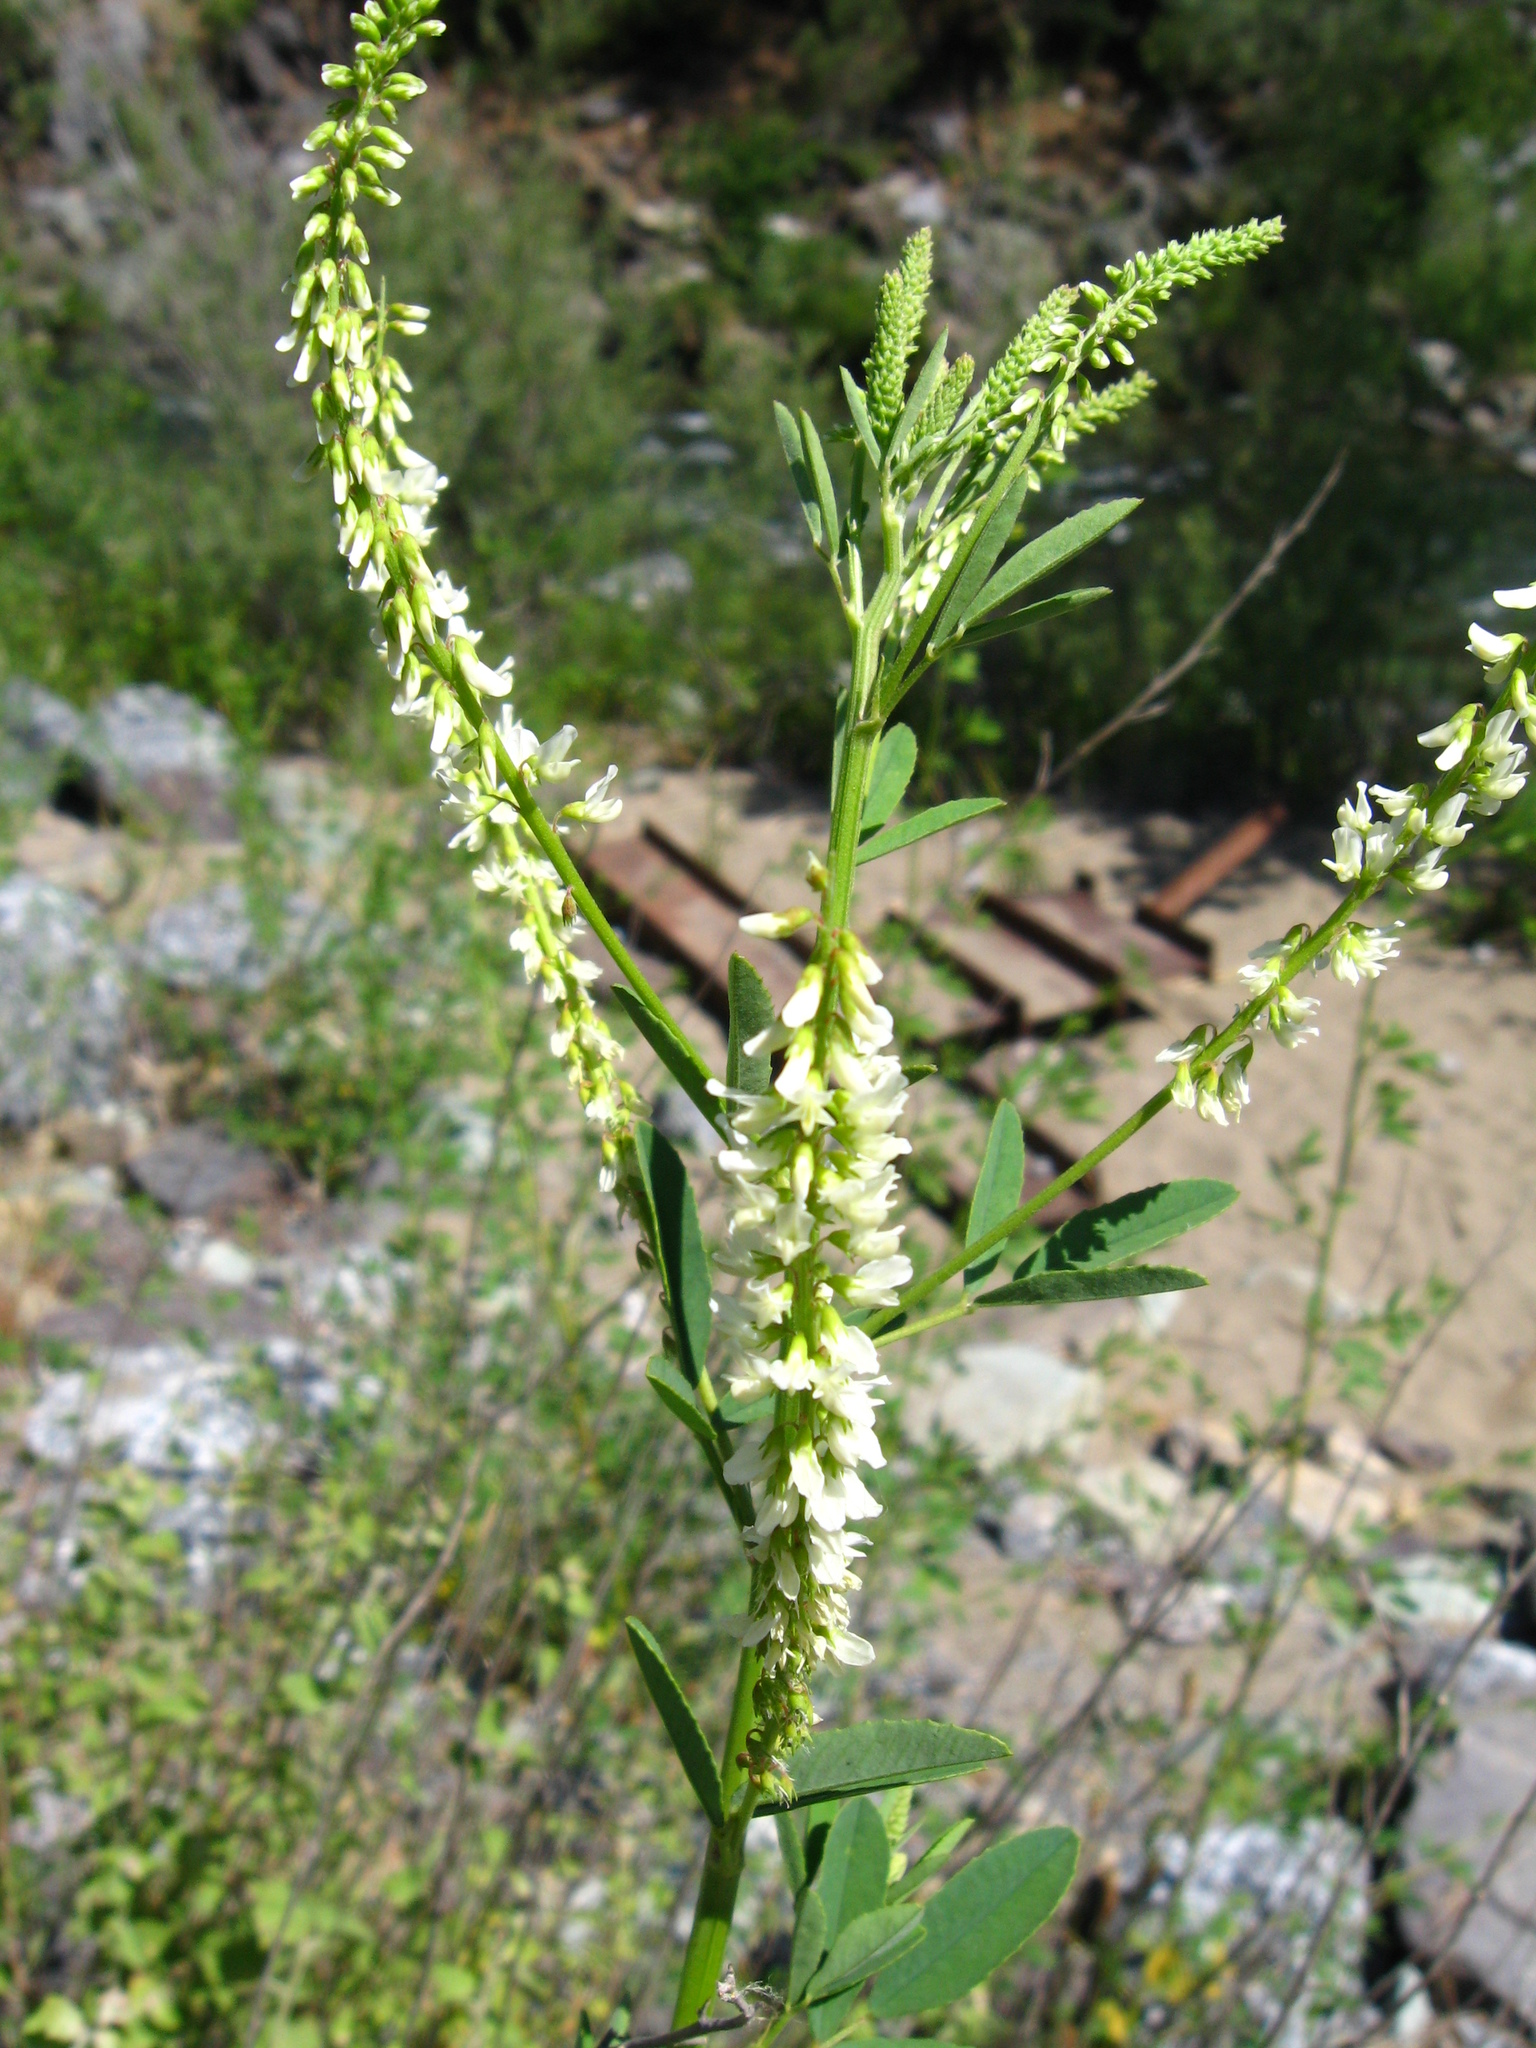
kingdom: Plantae
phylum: Tracheophyta
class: Magnoliopsida
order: Fabales
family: Fabaceae
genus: Melilotus
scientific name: Melilotus albus
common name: White melilot
